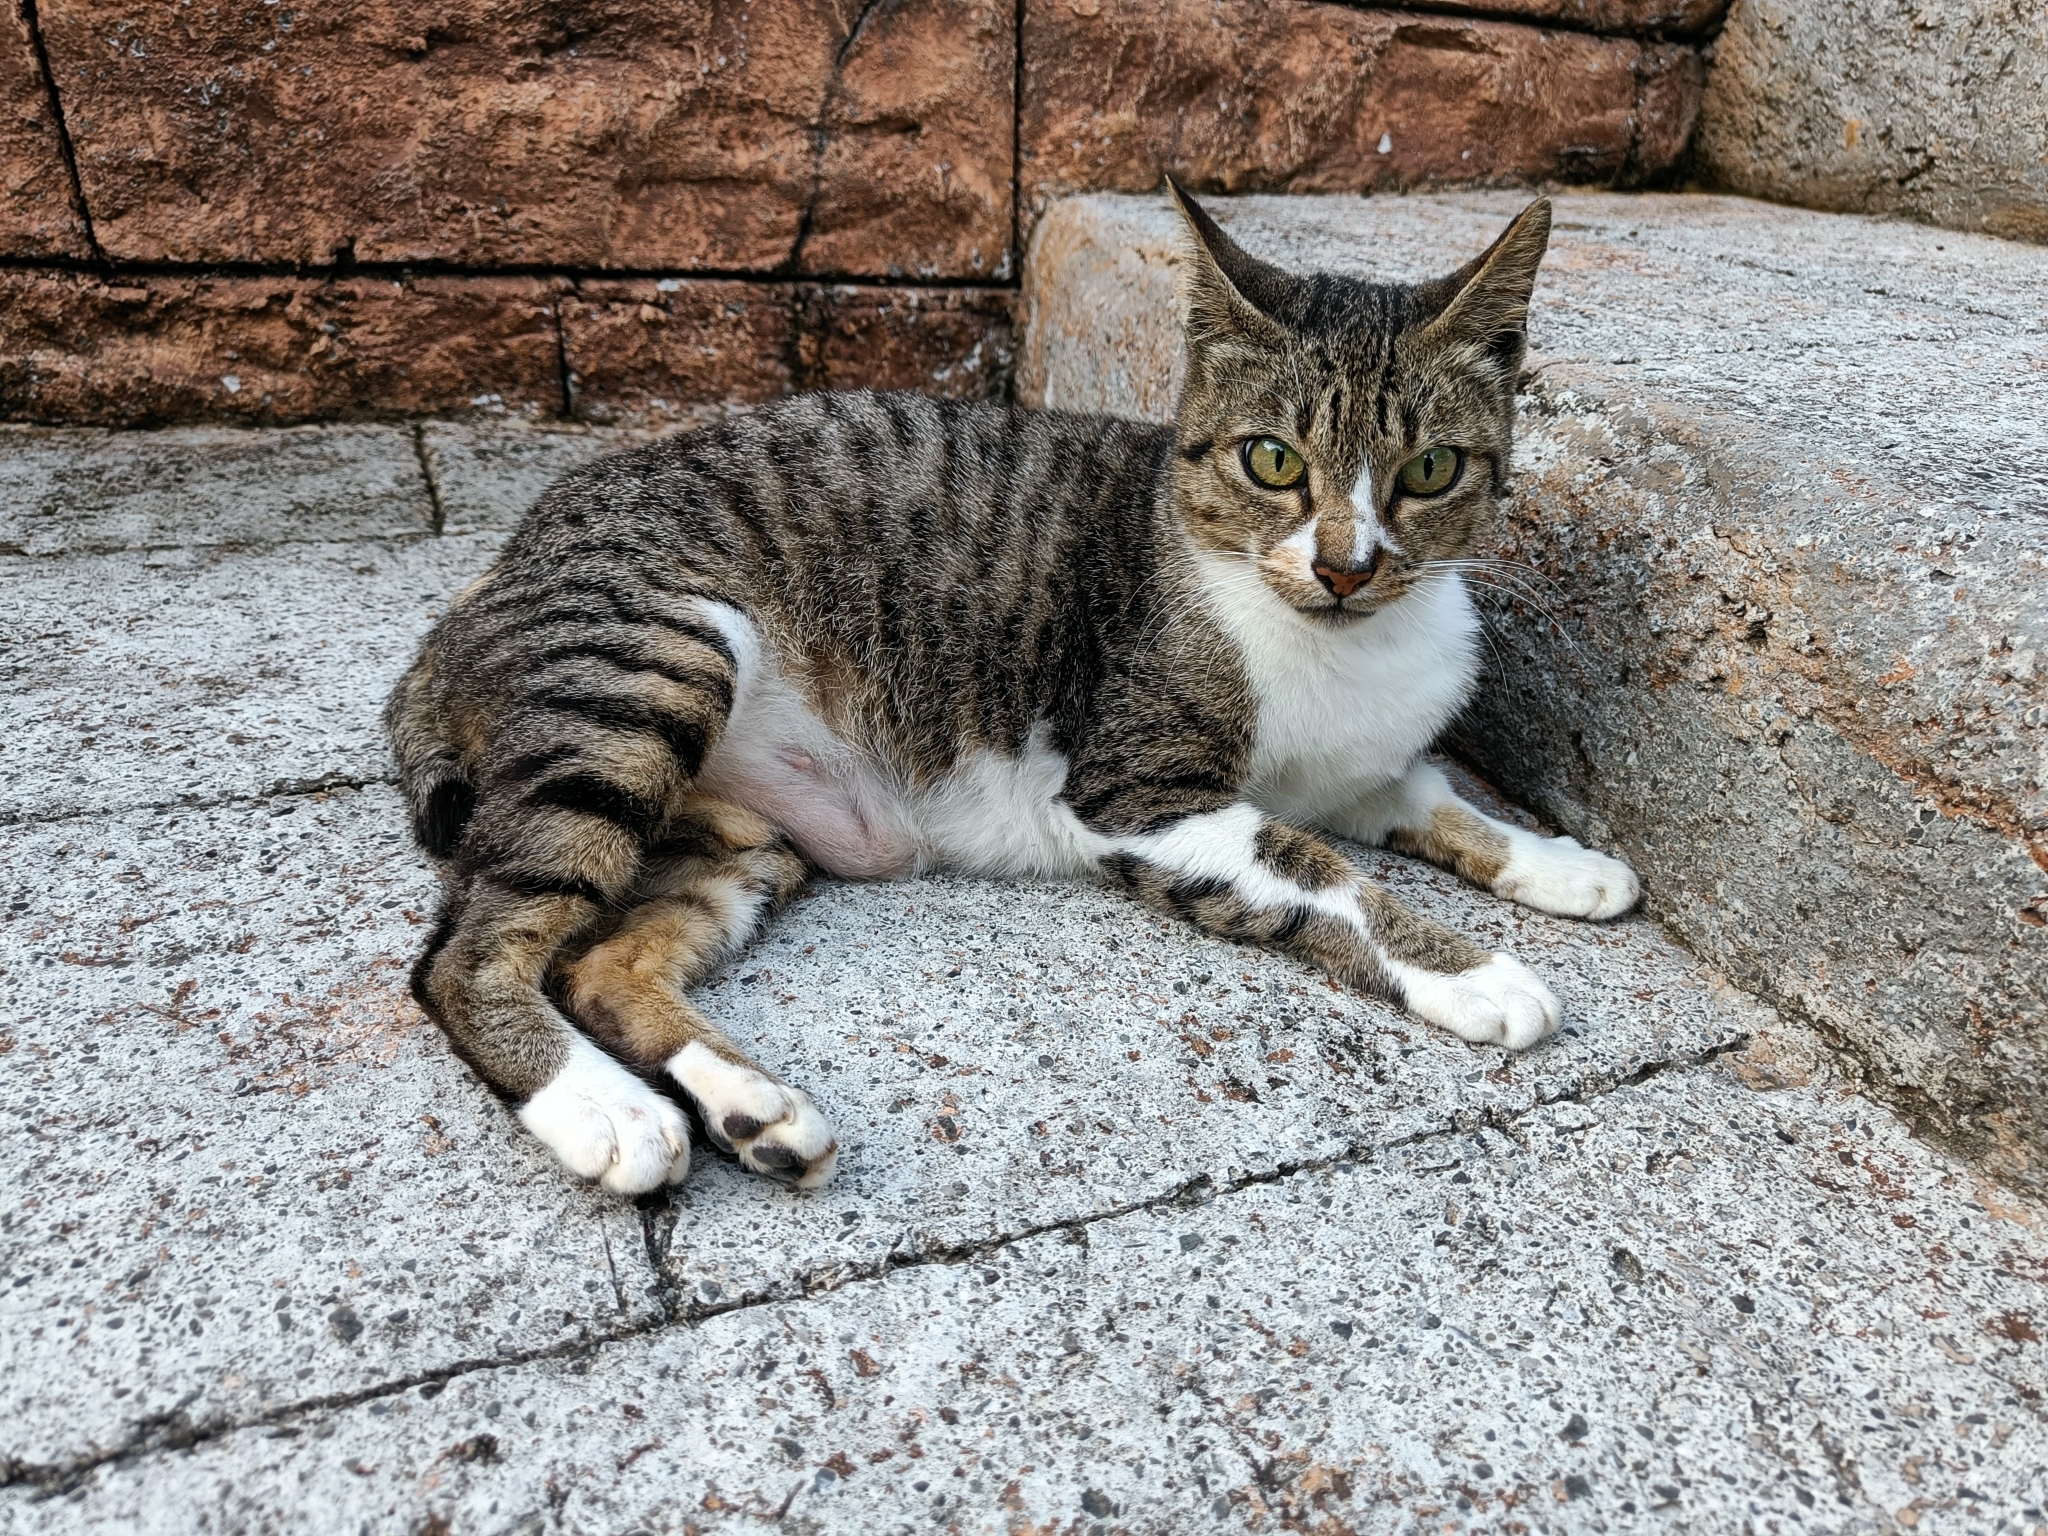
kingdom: Animalia
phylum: Chordata
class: Mammalia
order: Carnivora
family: Felidae
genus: Felis
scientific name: Felis catus
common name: Domestic cat
